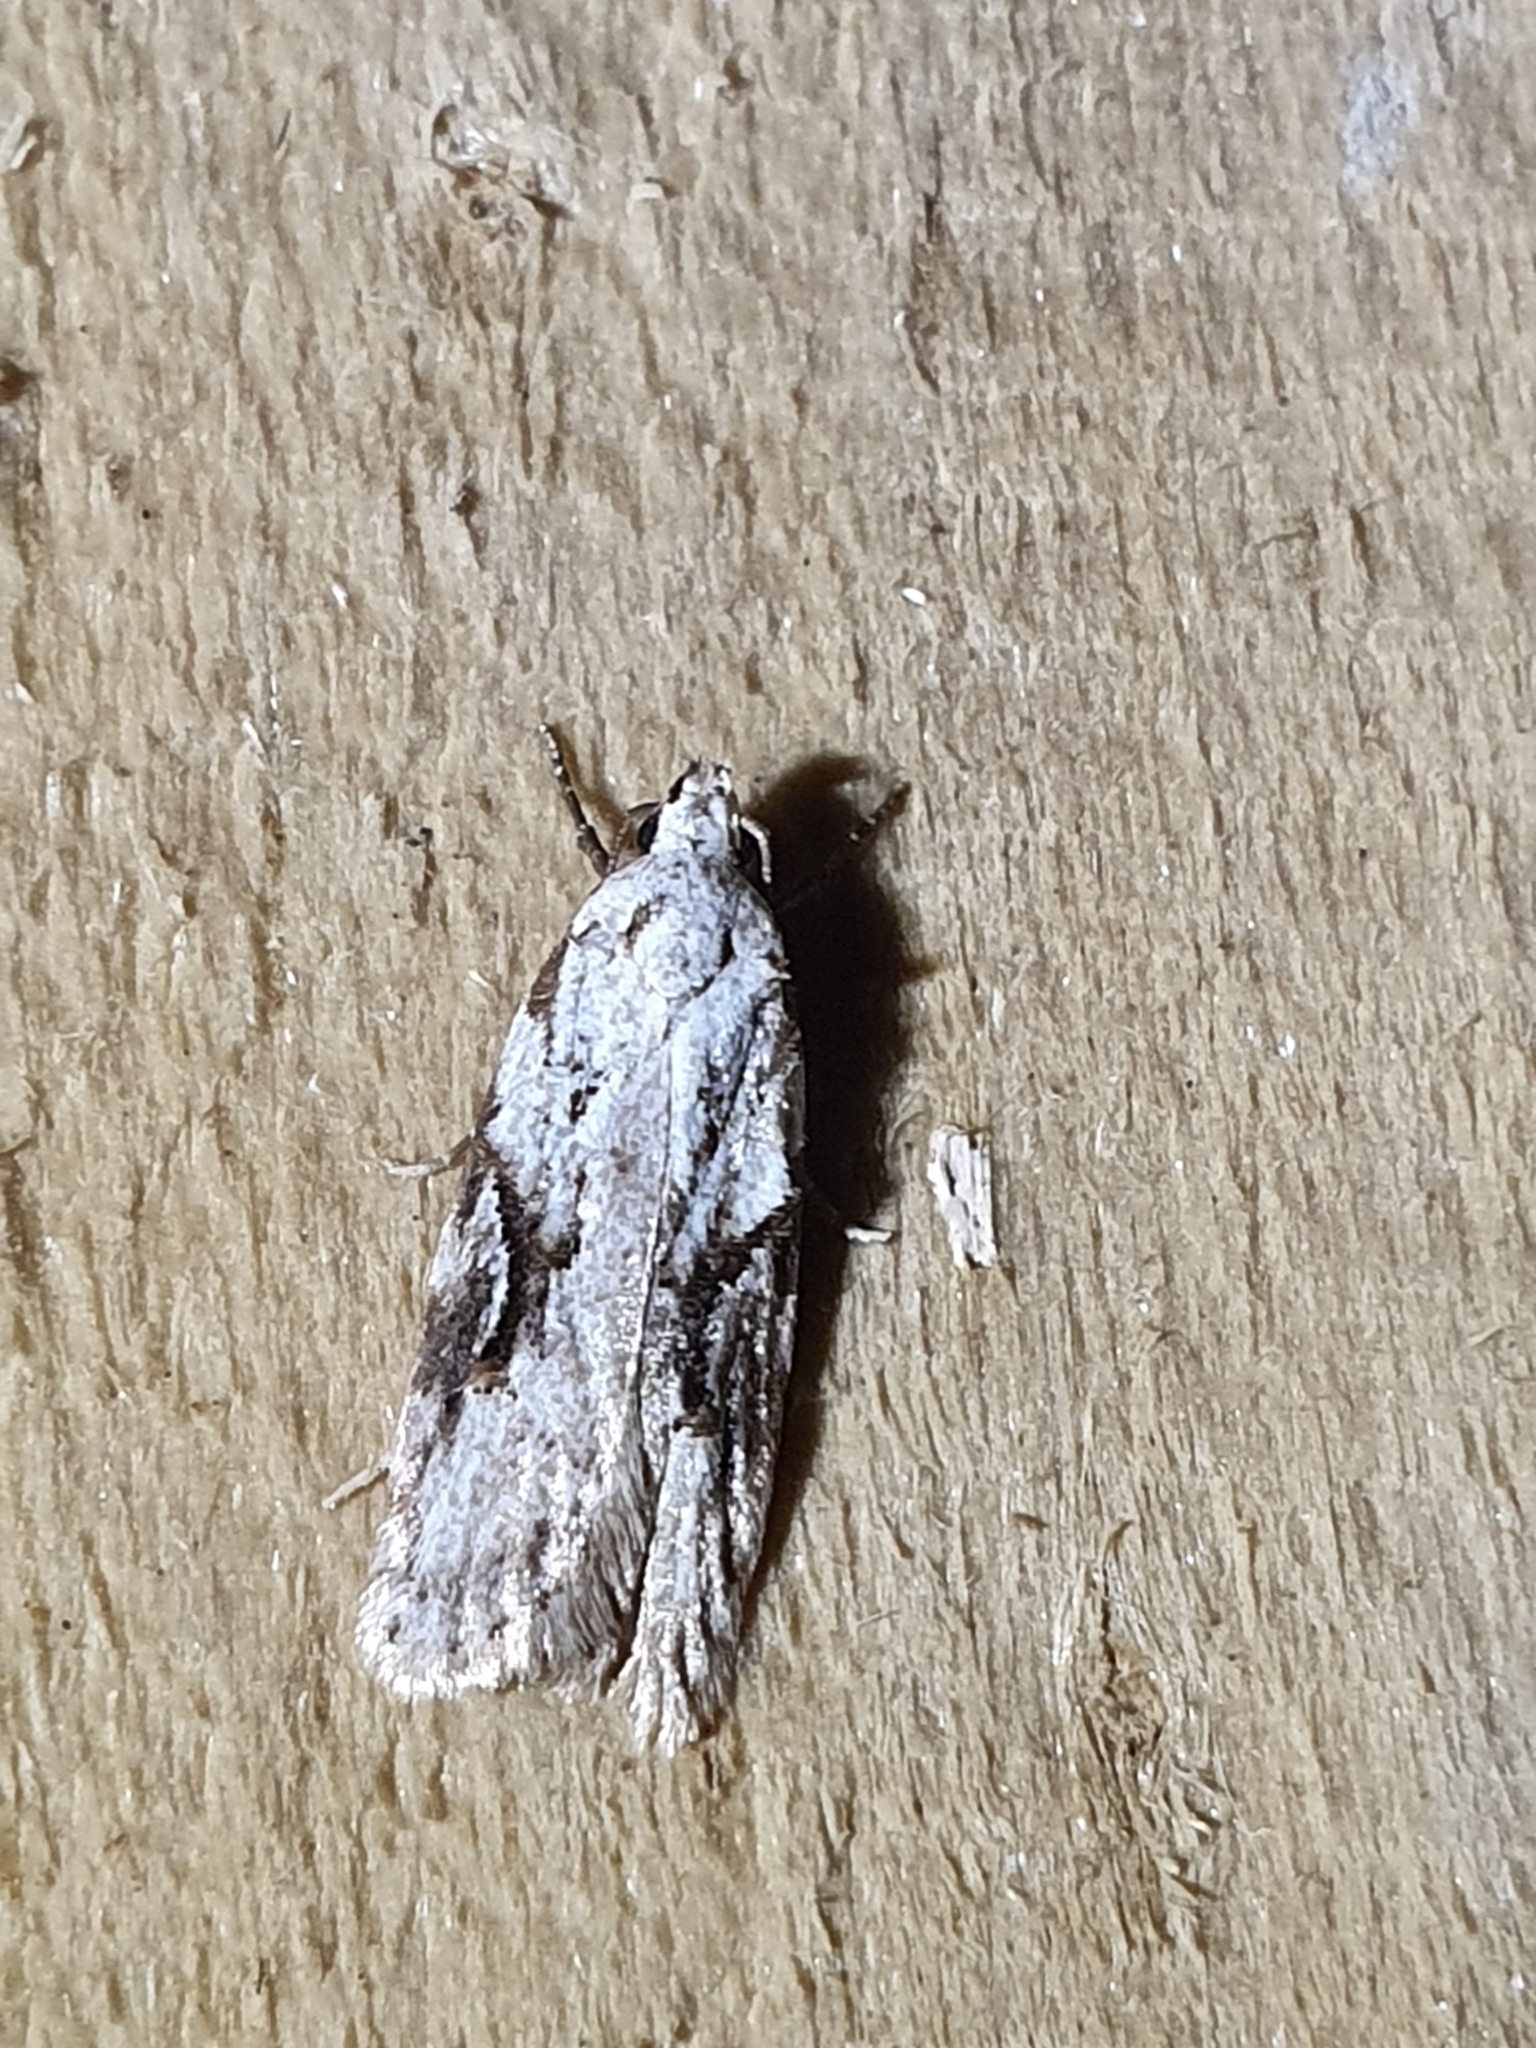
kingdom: Animalia
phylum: Arthropoda
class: Insecta
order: Lepidoptera
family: Oecophoridae
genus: Izatha
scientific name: Izatha mesoschista
